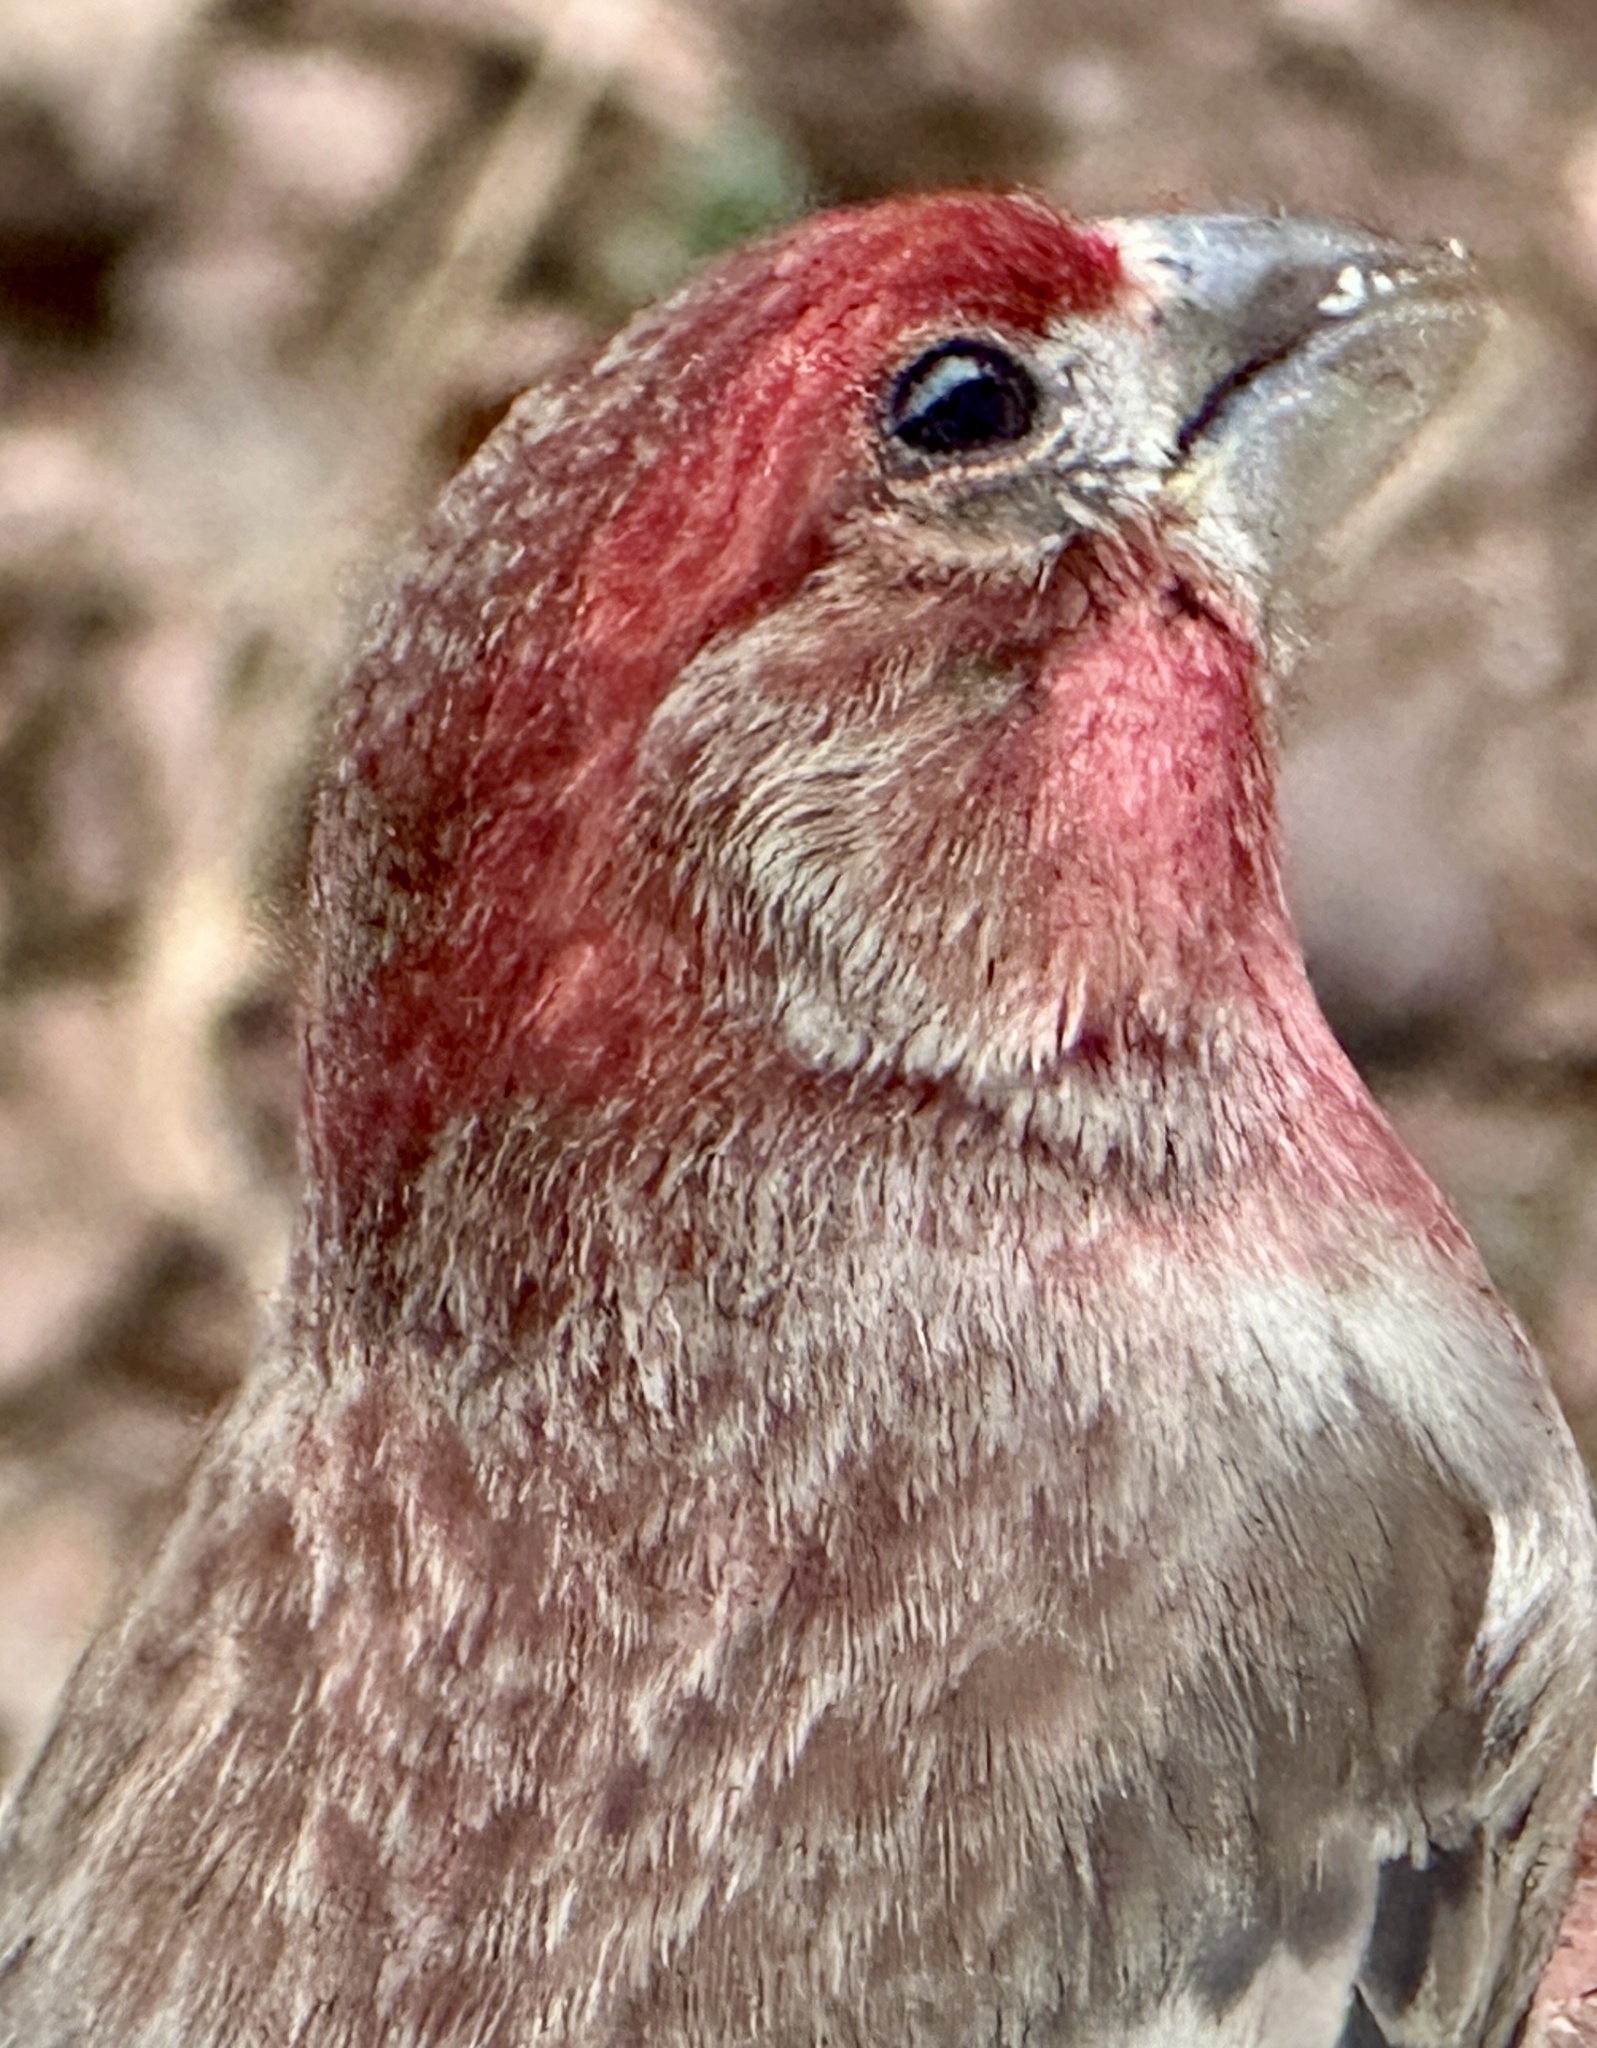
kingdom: Animalia
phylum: Chordata
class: Aves
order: Passeriformes
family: Fringillidae
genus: Haemorhous
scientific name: Haemorhous mexicanus
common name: House finch
